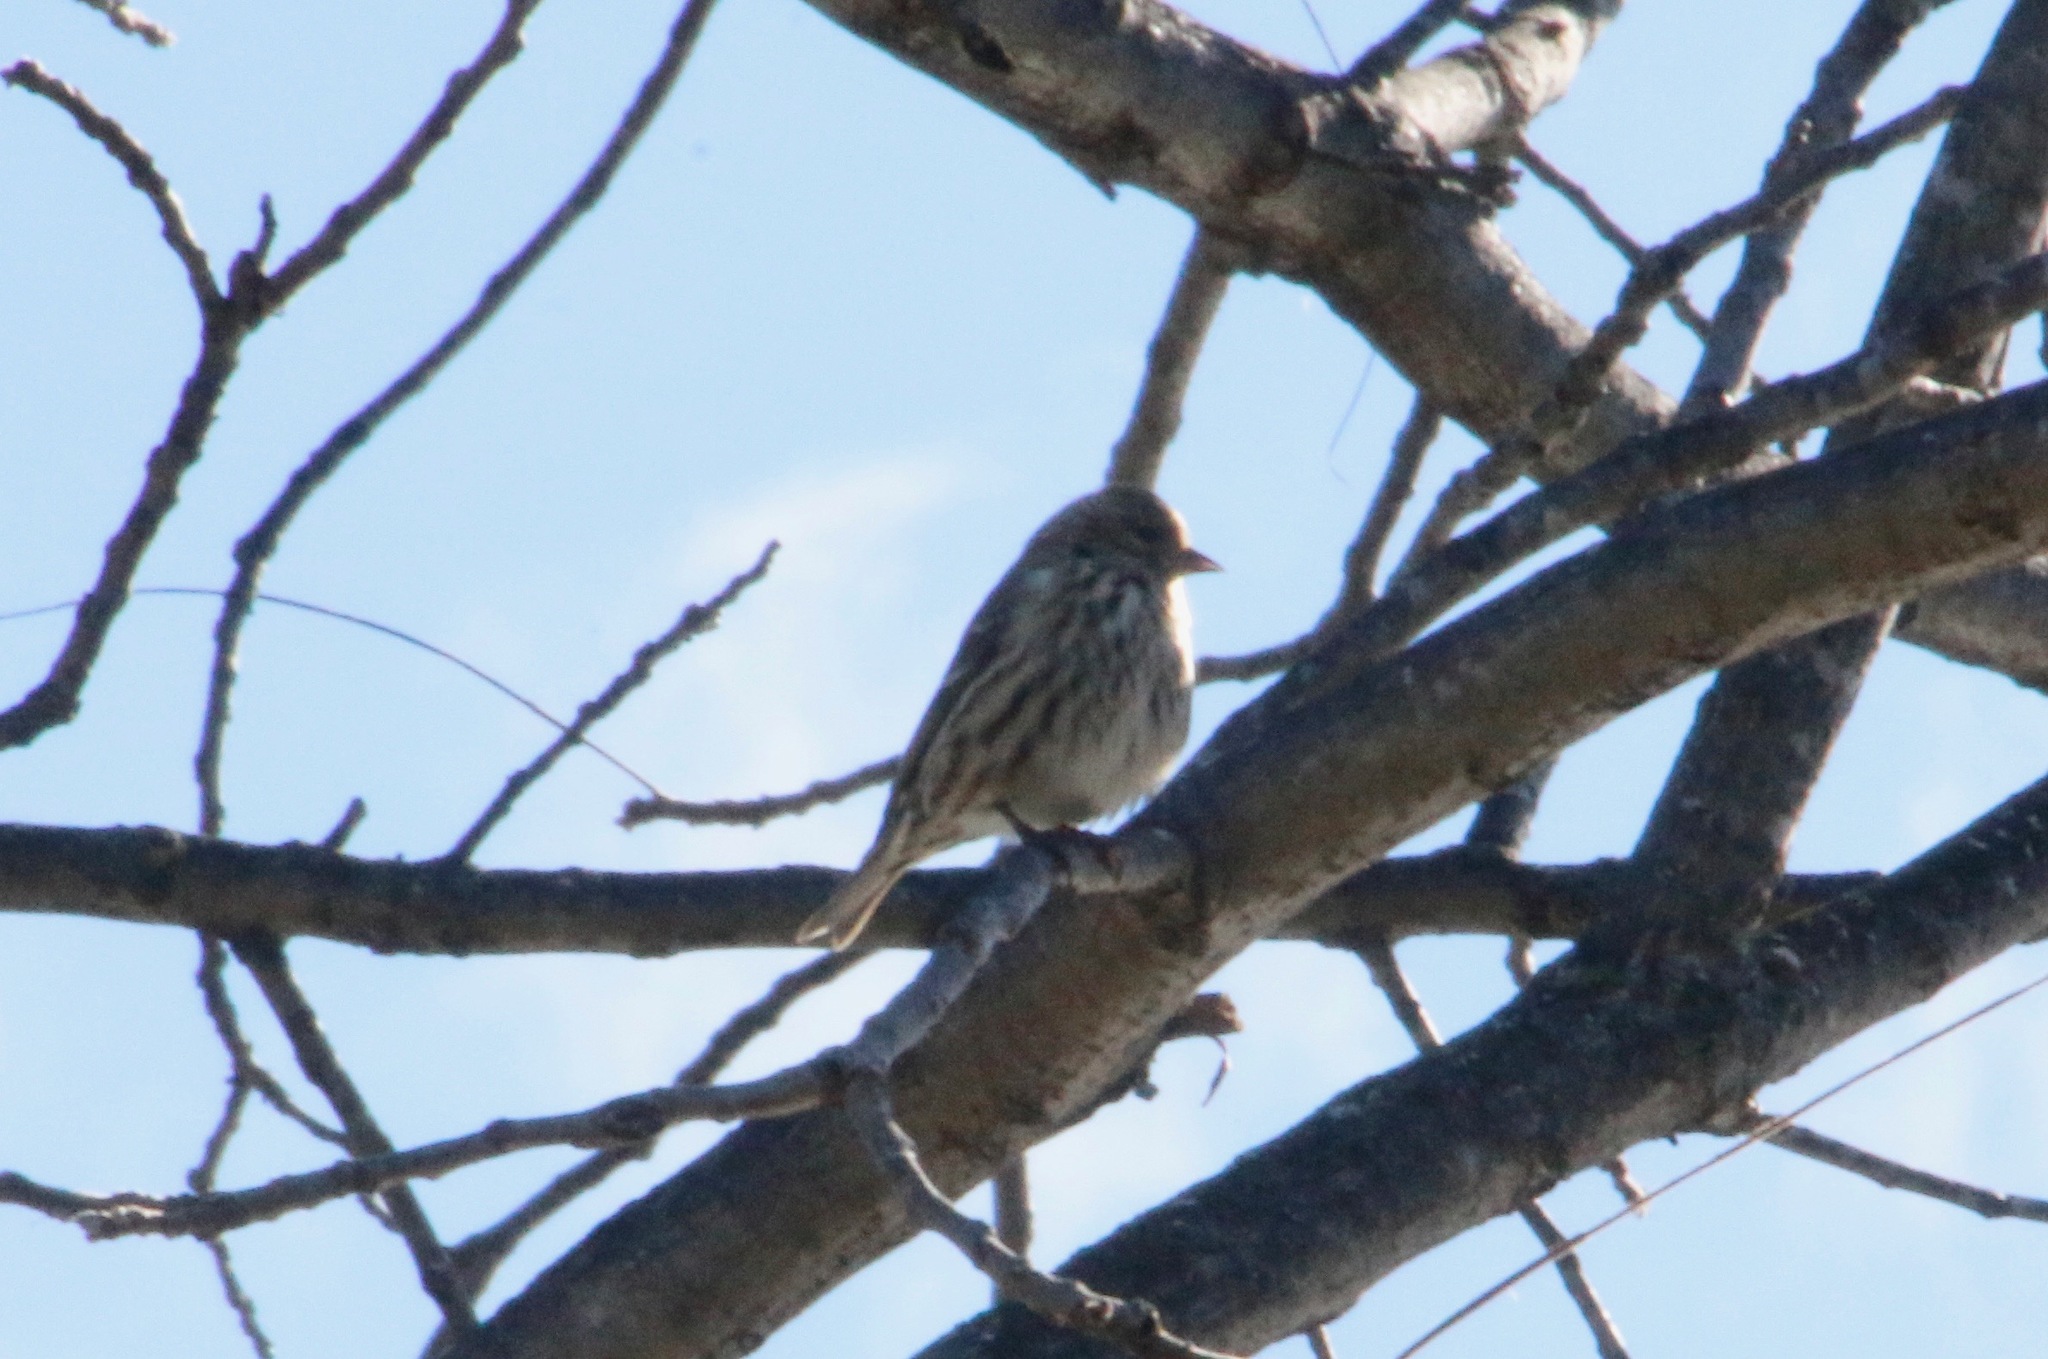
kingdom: Animalia
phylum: Chordata
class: Aves
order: Passeriformes
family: Fringillidae
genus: Spinus
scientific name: Spinus pinus
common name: Pine siskin
